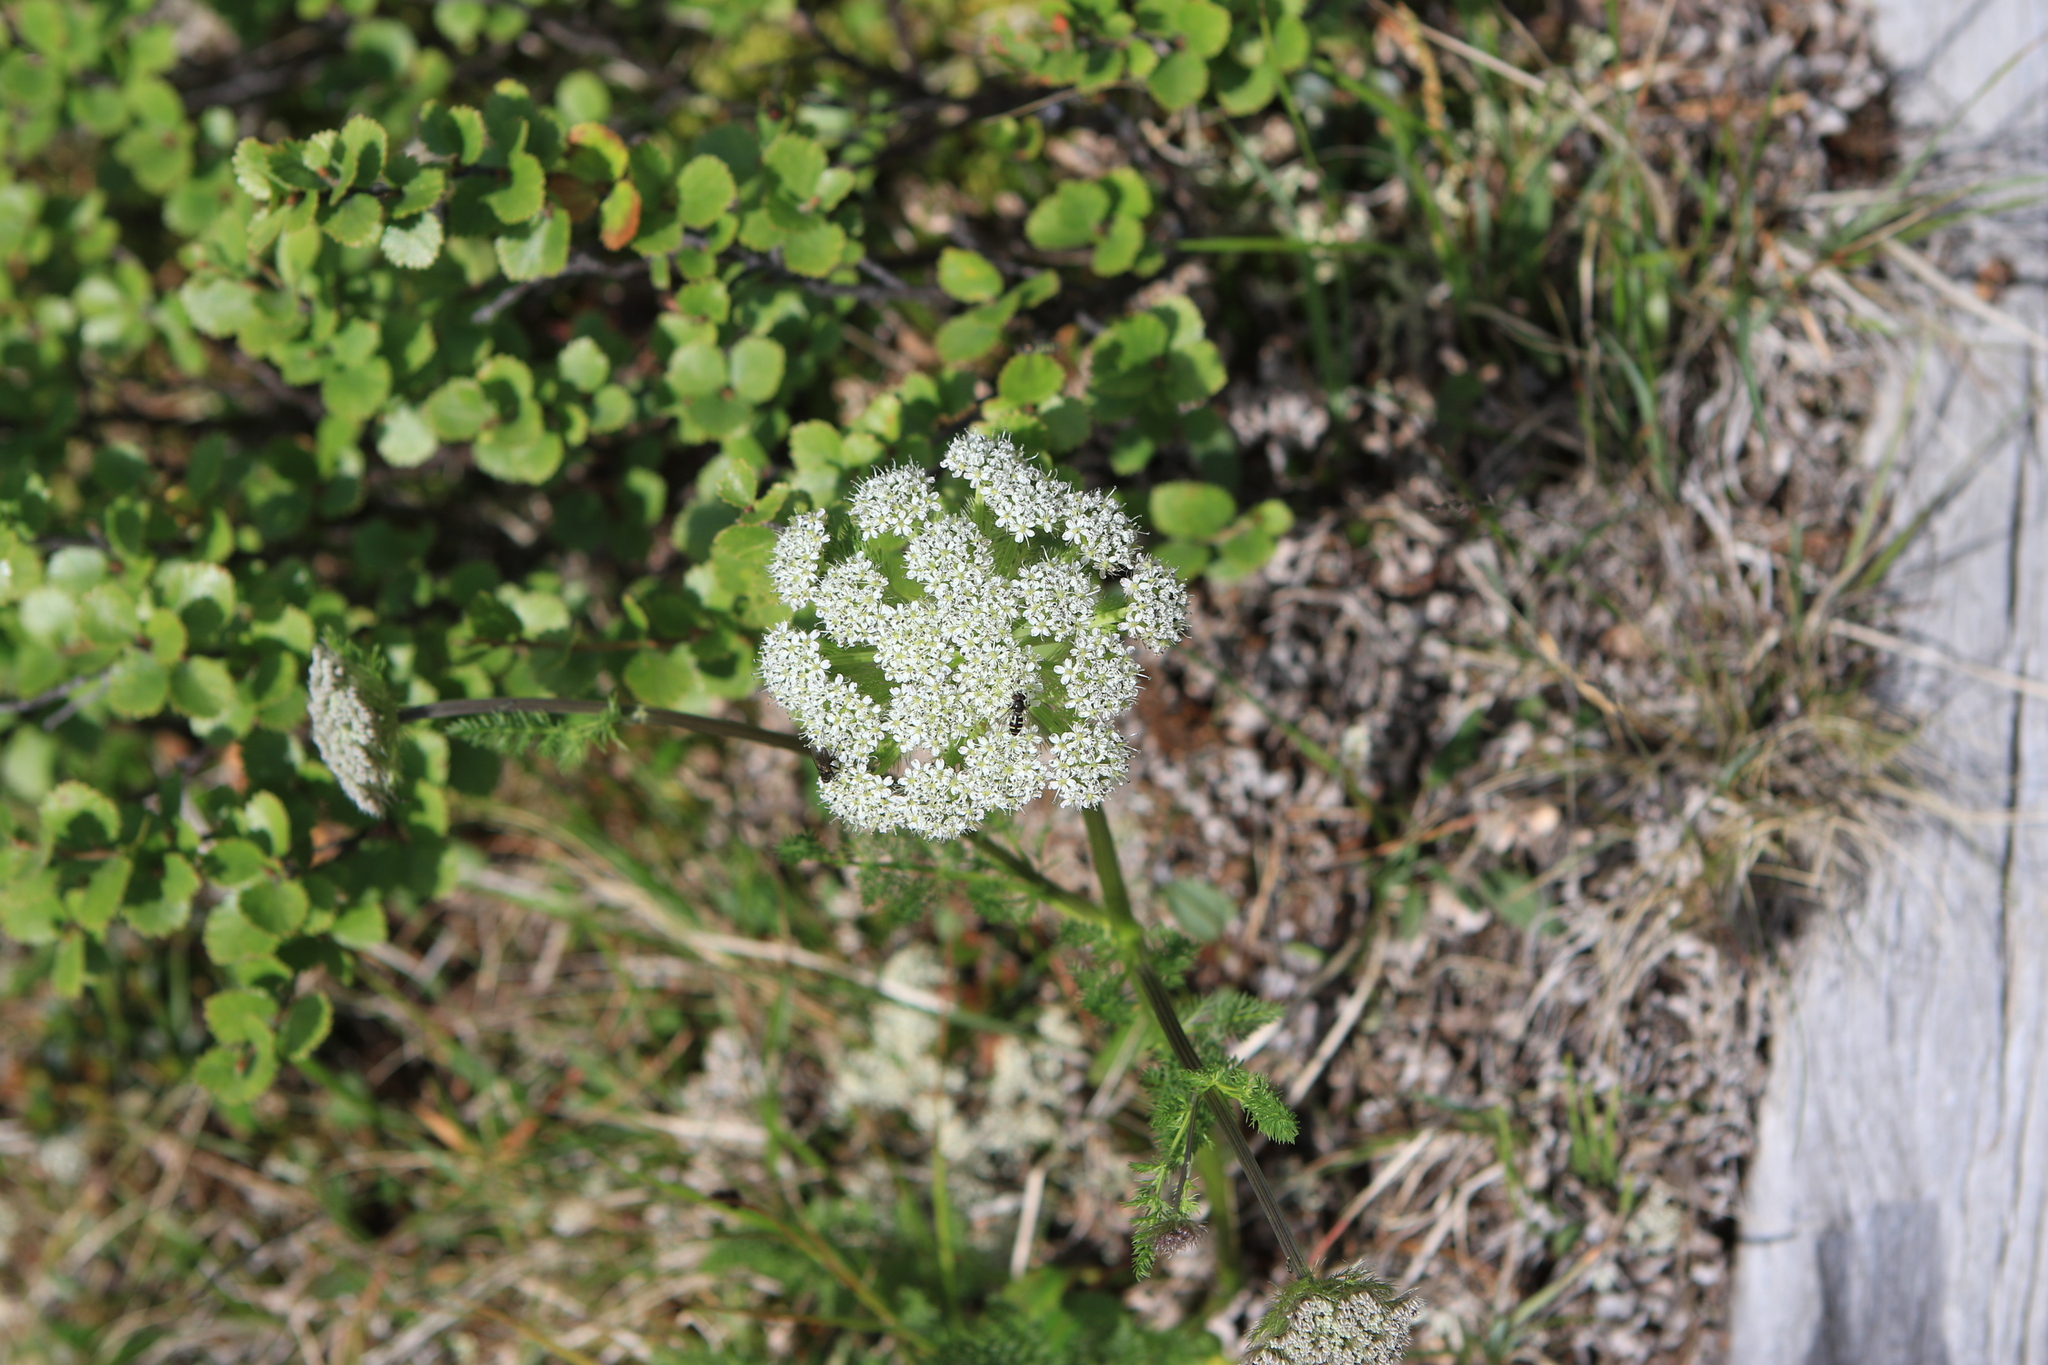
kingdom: Plantae
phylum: Tracheophyta
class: Magnoliopsida
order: Apiales
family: Apiaceae
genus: Schulzia
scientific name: Schulzia crinita
